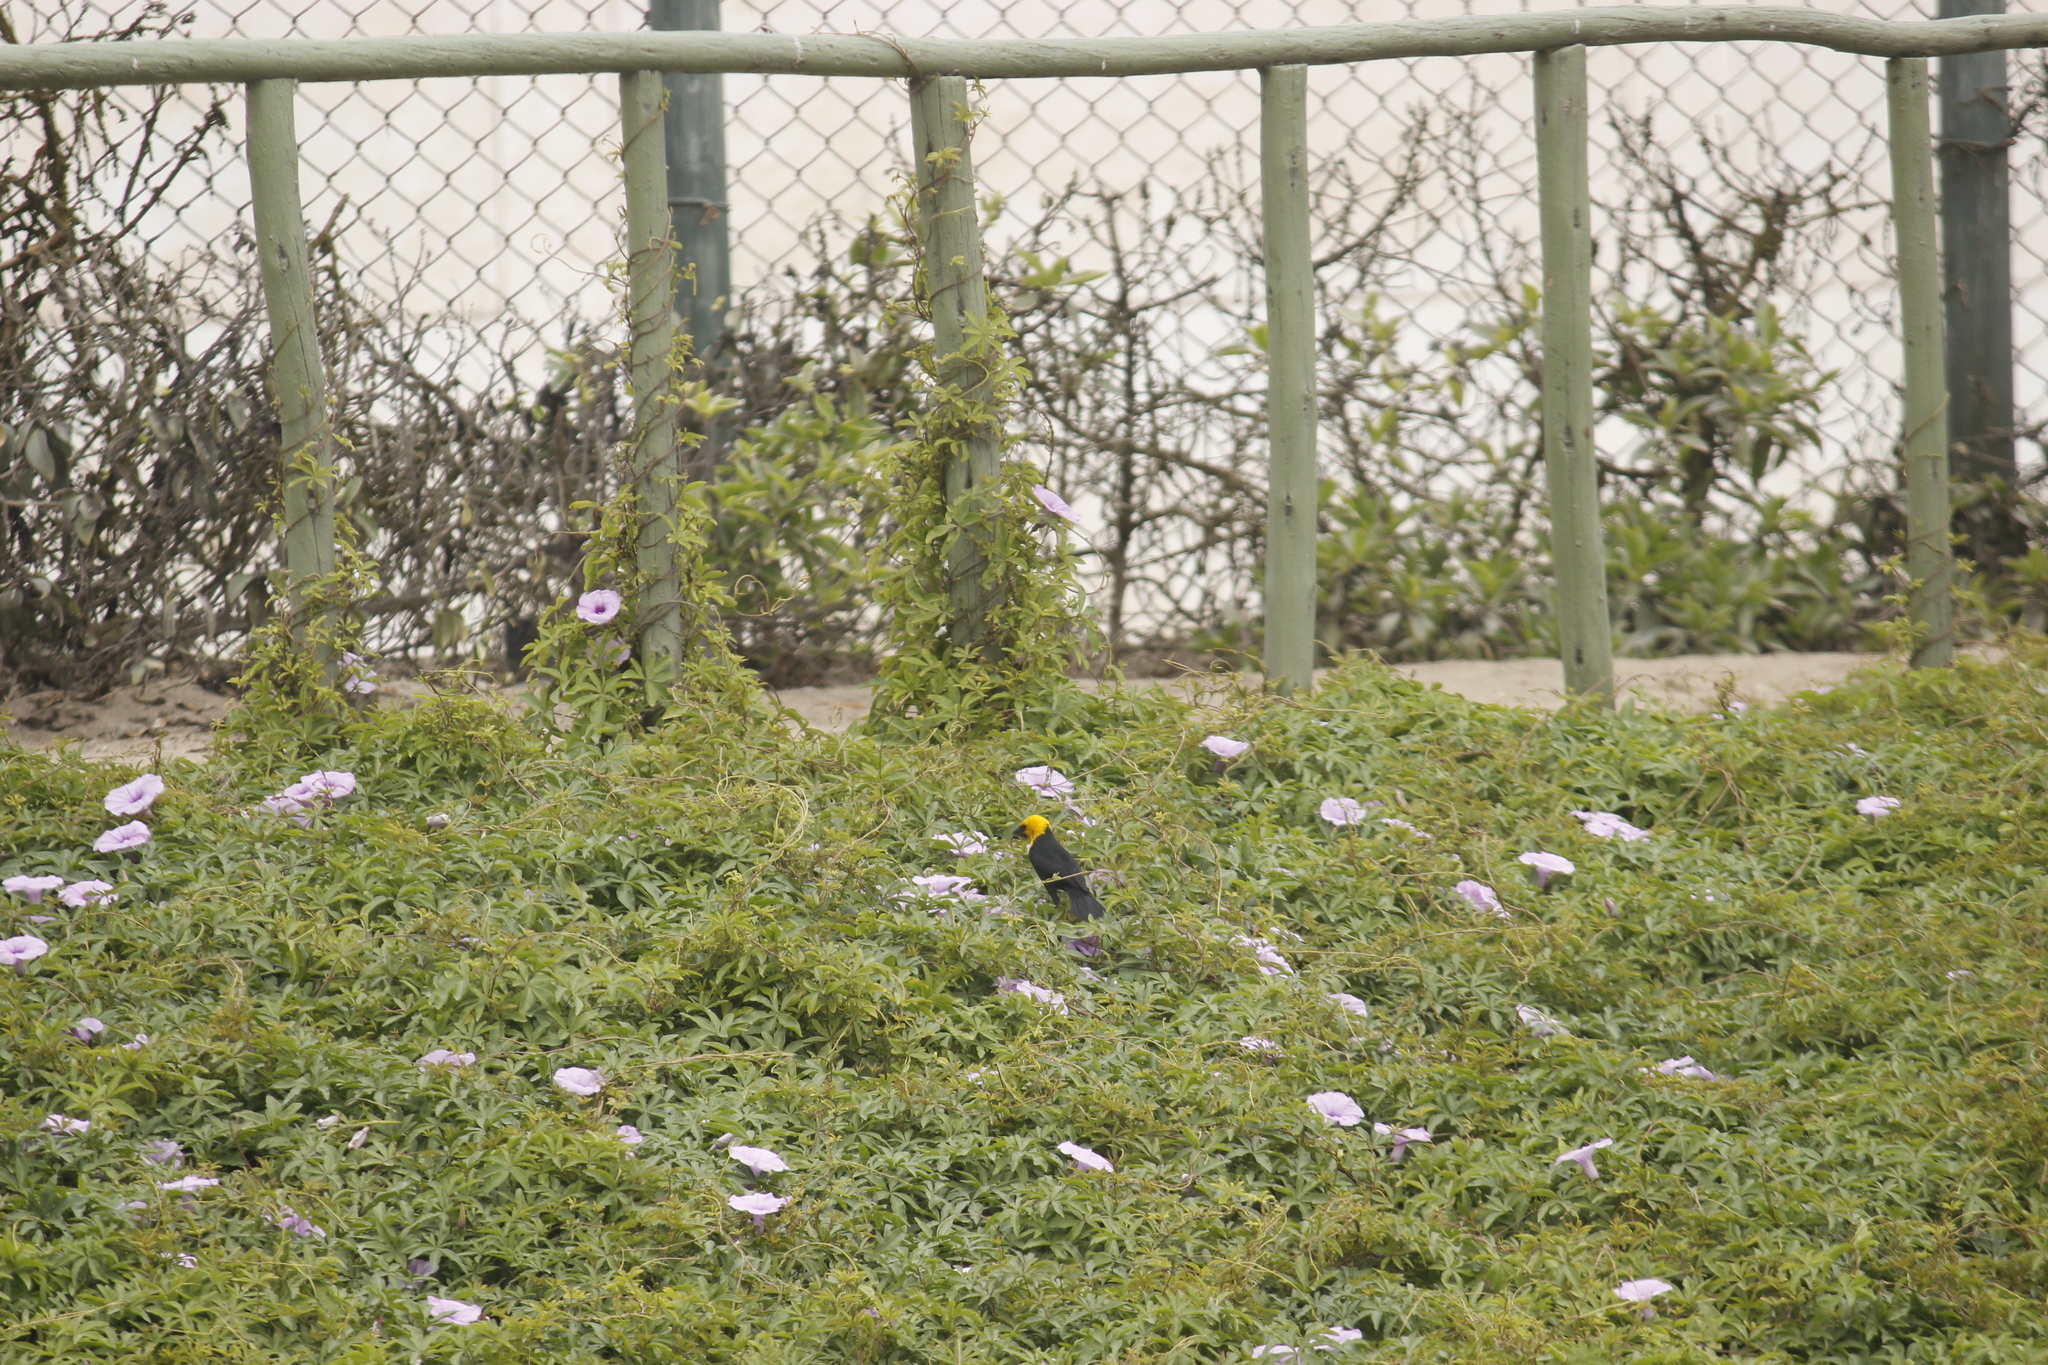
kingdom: Animalia
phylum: Chordata
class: Aves
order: Passeriformes
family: Icteridae
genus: Chrysomus
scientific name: Chrysomus icterocephalus
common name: Yellow-hooded blackbird
